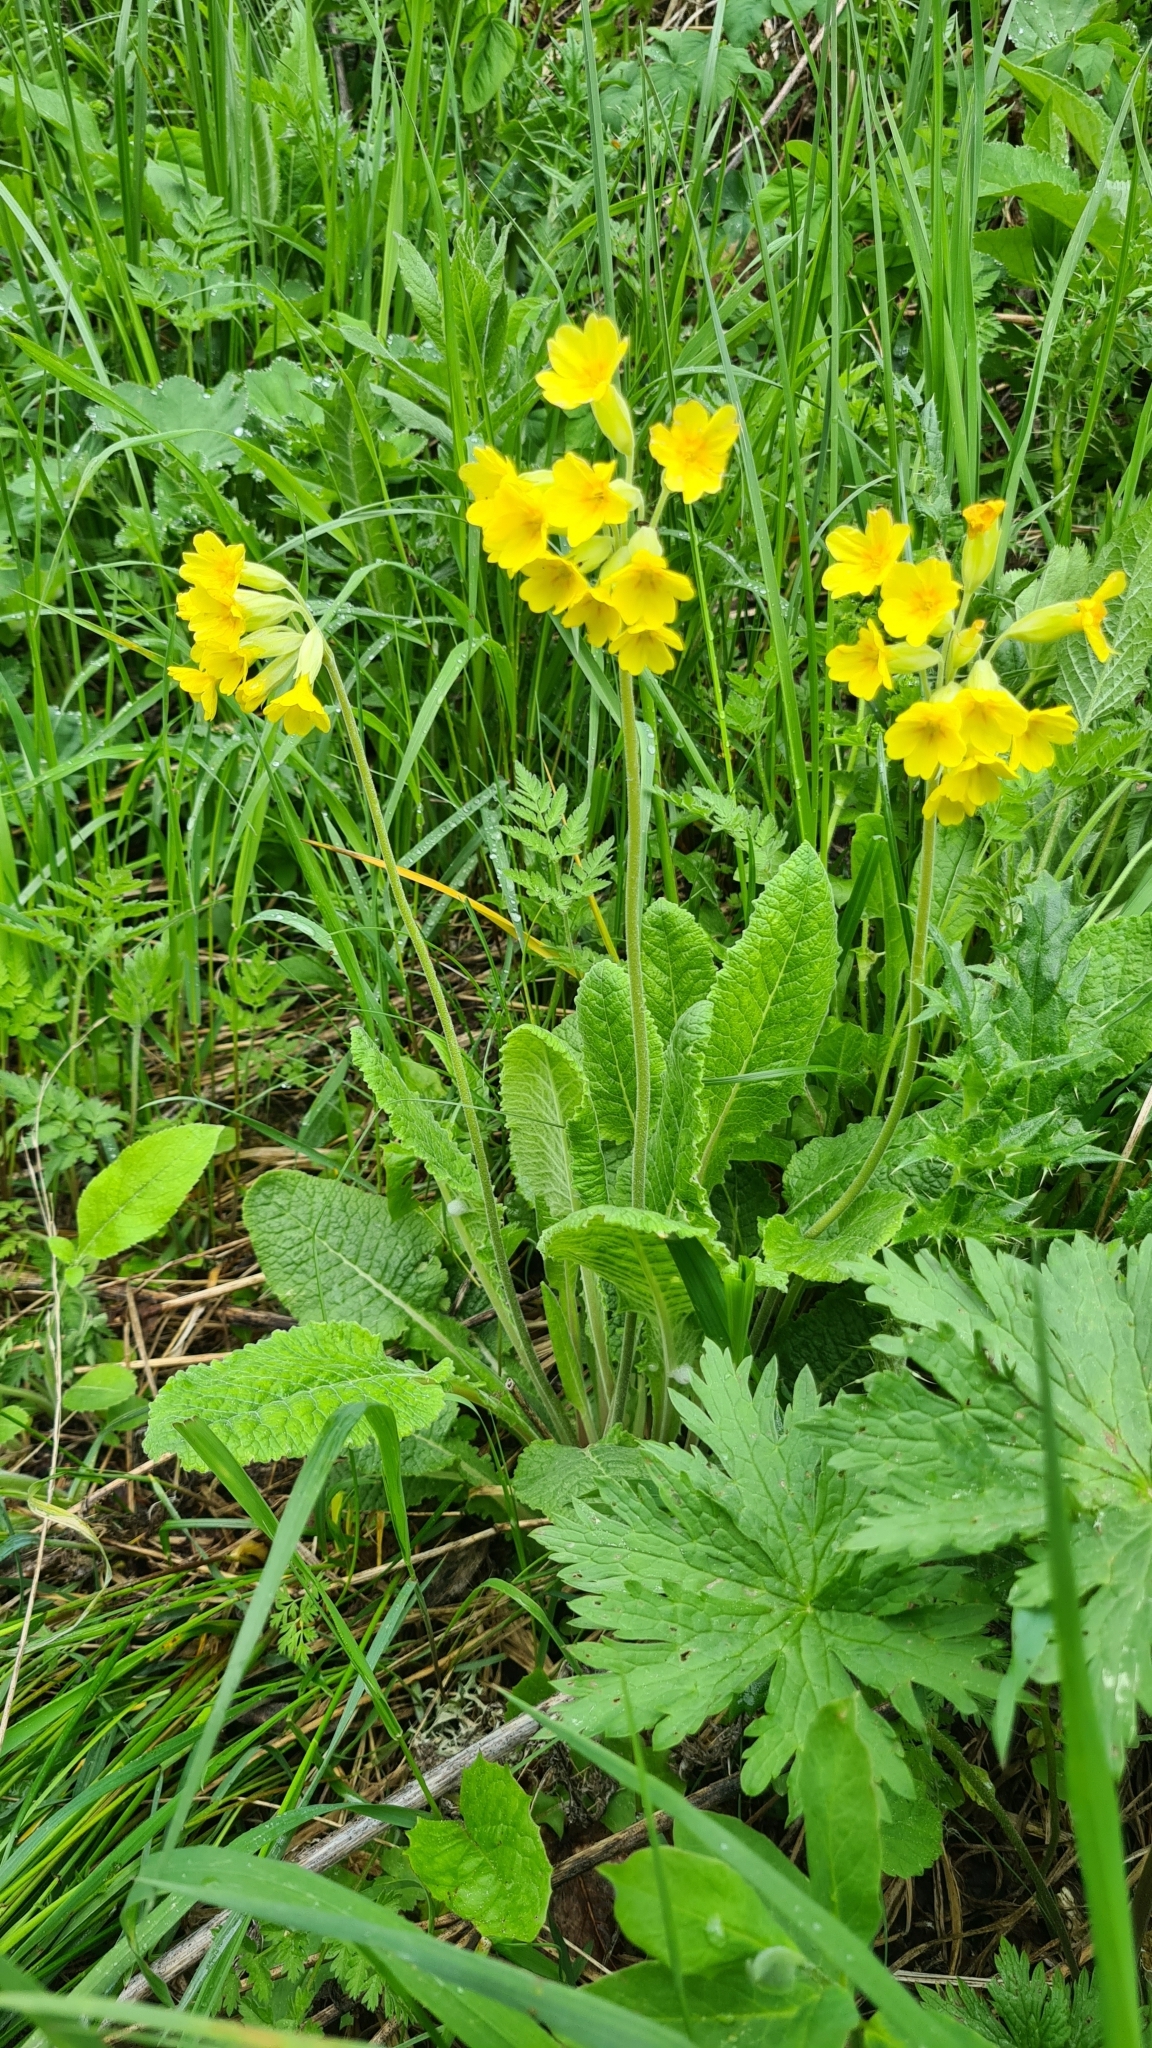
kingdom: Plantae
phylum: Tracheophyta
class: Magnoliopsida
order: Ericales
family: Primulaceae
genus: Primula
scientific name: Primula veris
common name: Cowslip
